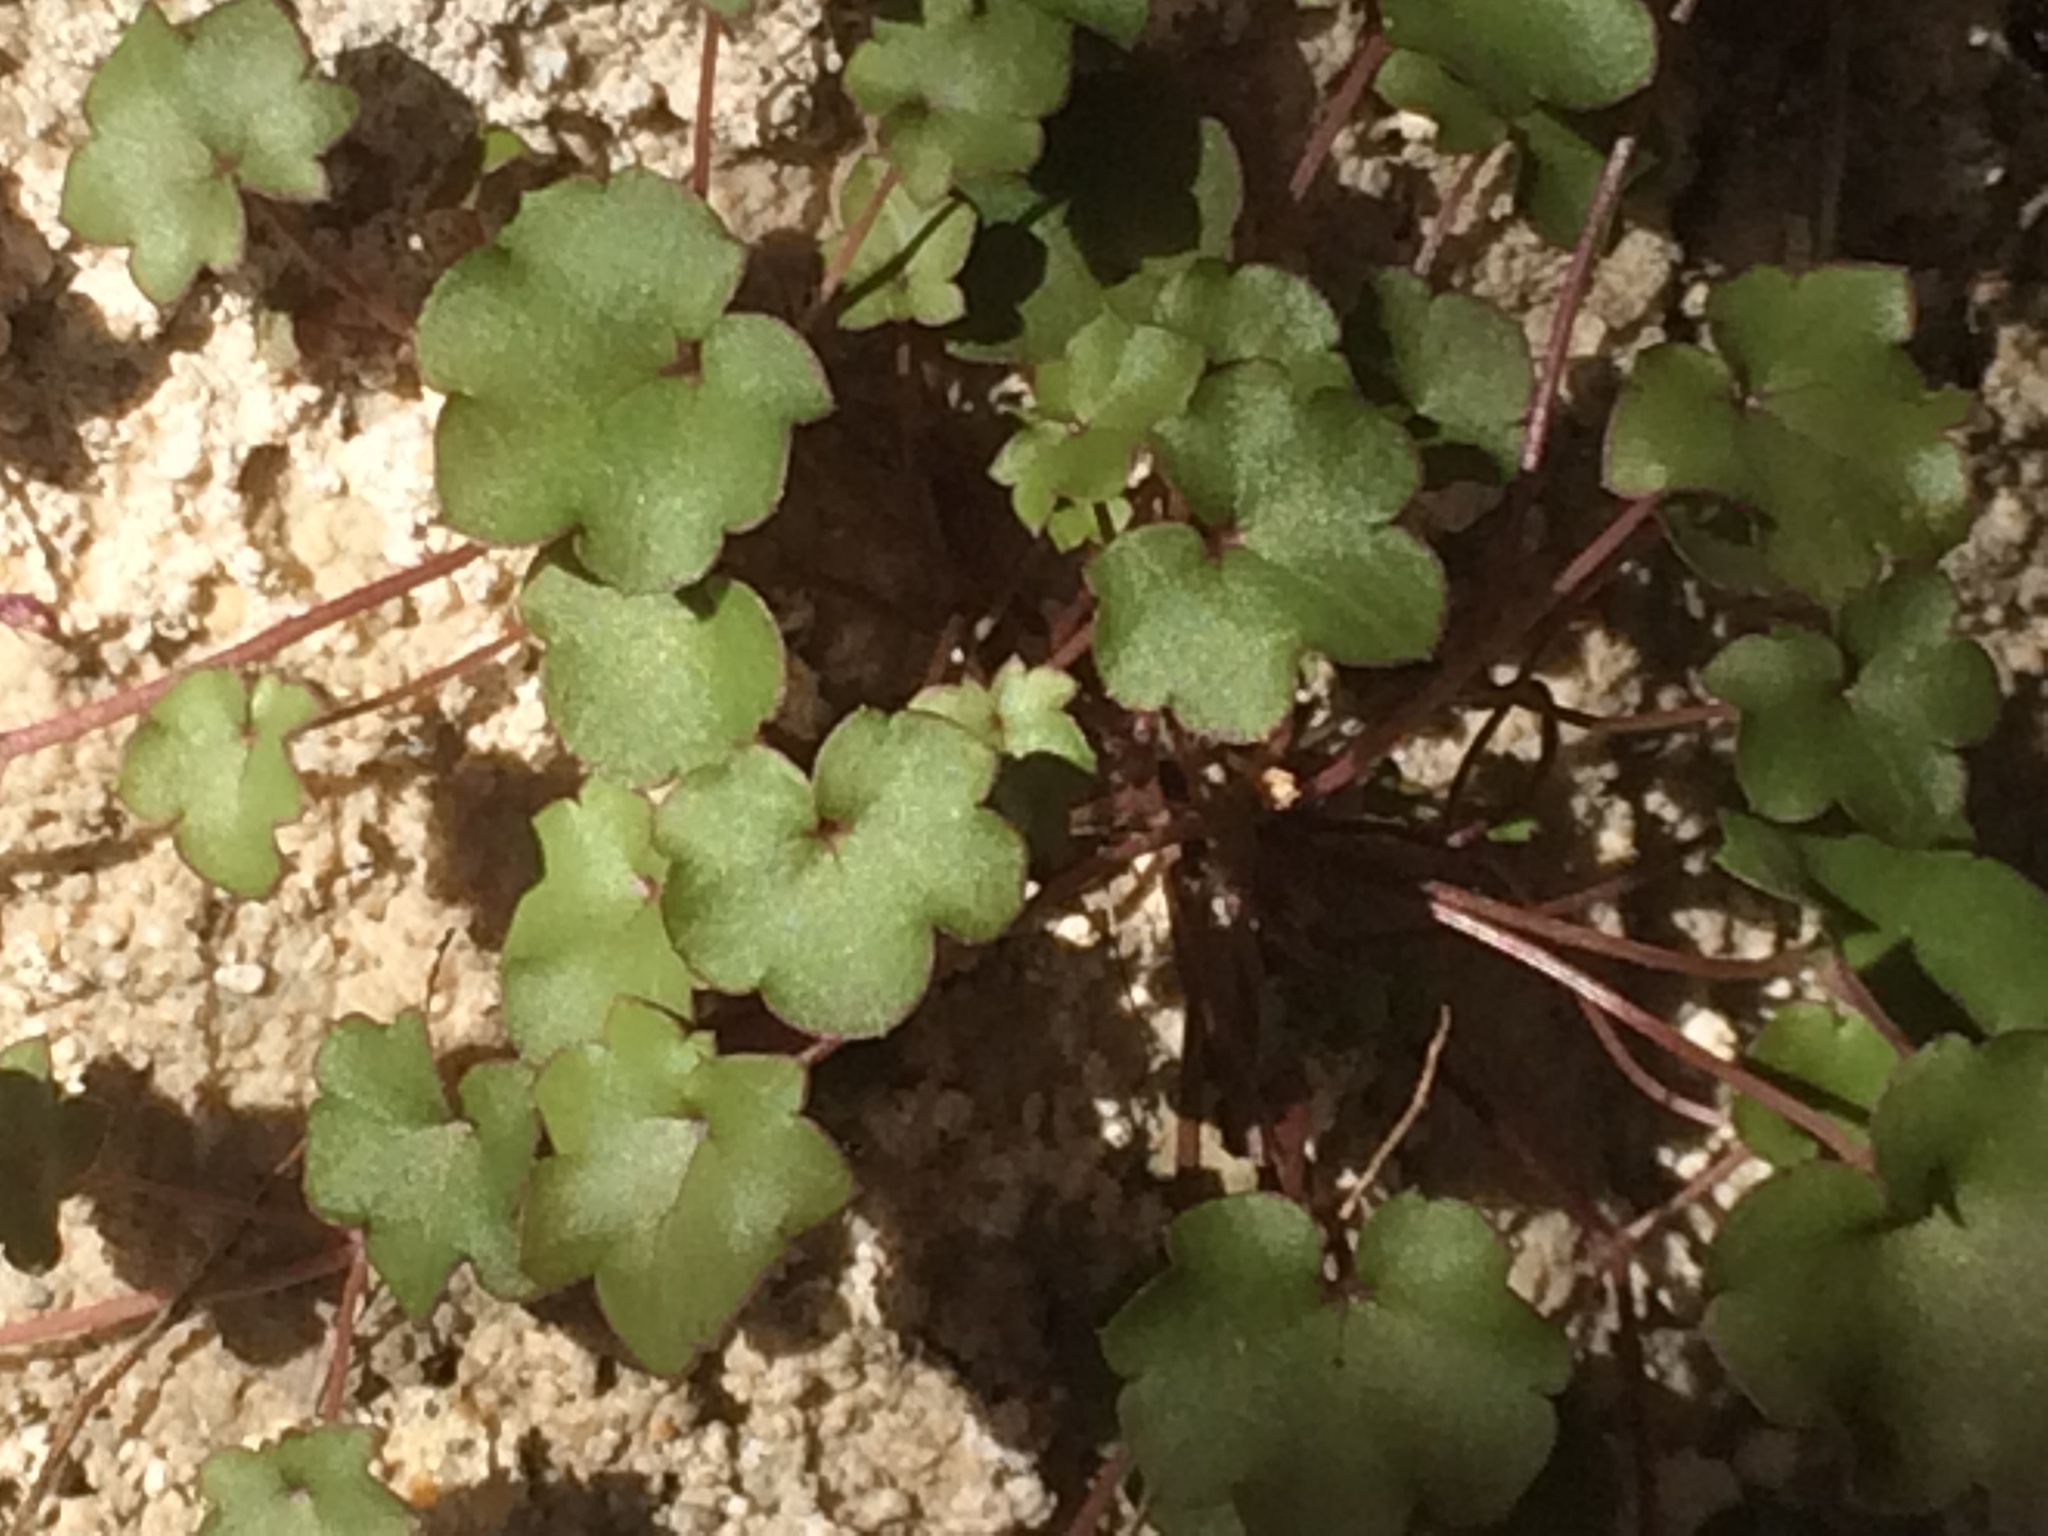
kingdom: Plantae
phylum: Tracheophyta
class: Magnoliopsida
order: Lamiales
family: Plantaginaceae
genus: Cymbalaria
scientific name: Cymbalaria muralis
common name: Ivy-leaved toadflax
